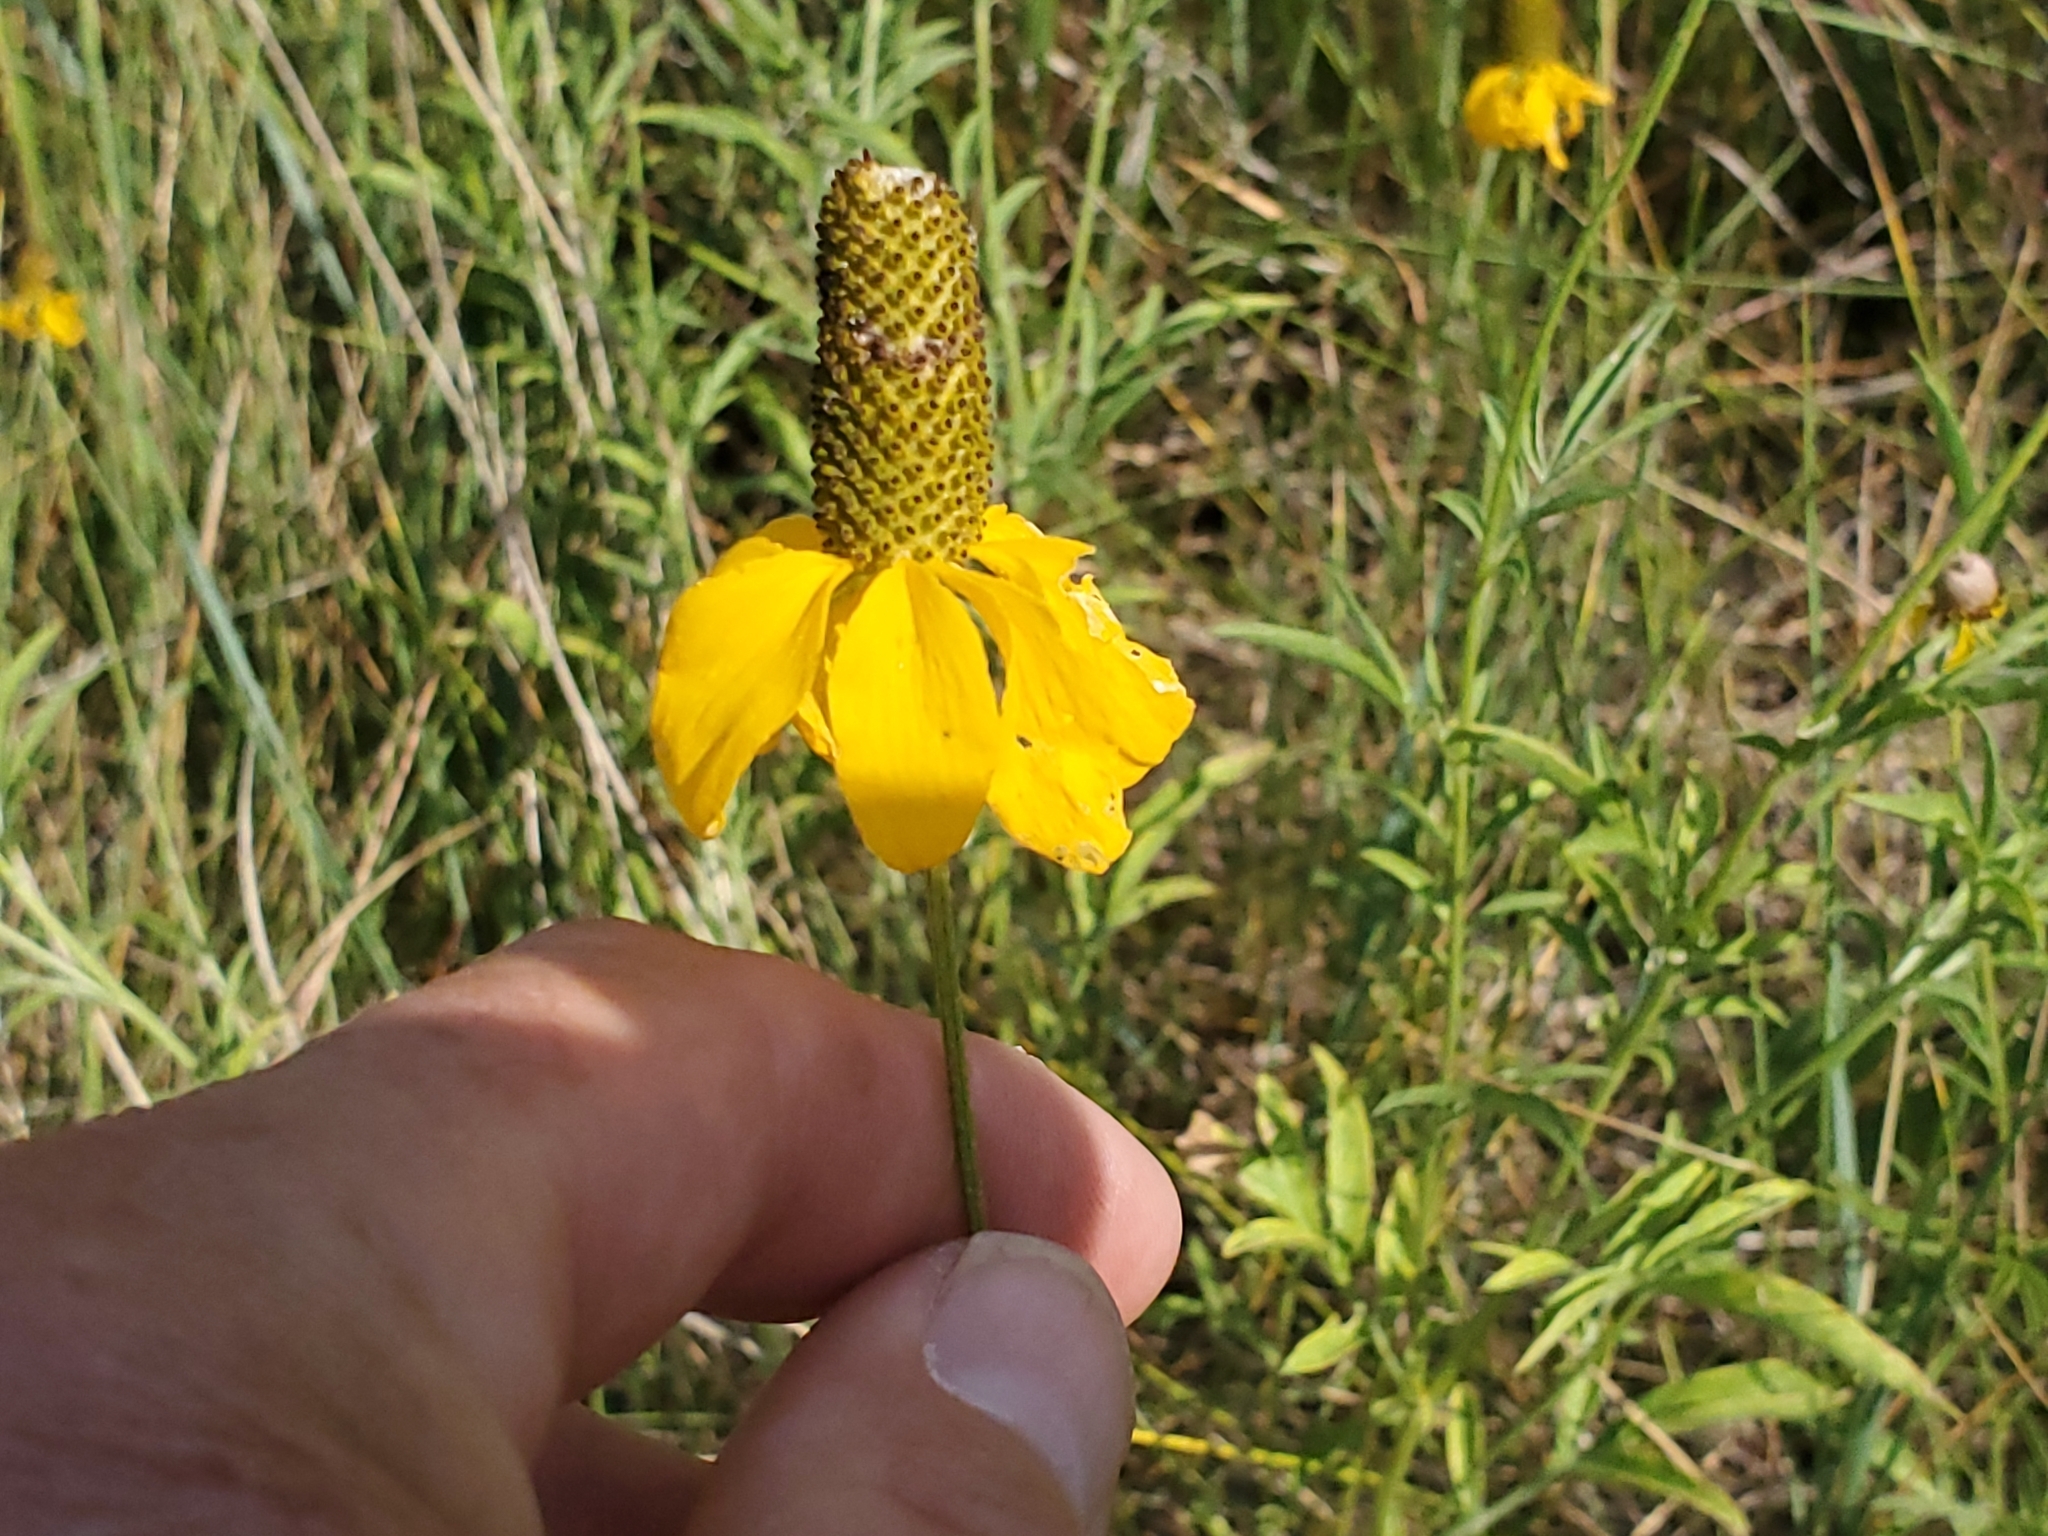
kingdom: Plantae
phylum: Tracheophyta
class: Magnoliopsida
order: Asterales
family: Asteraceae
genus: Ratibida
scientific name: Ratibida columnifera
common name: Prairie coneflower
